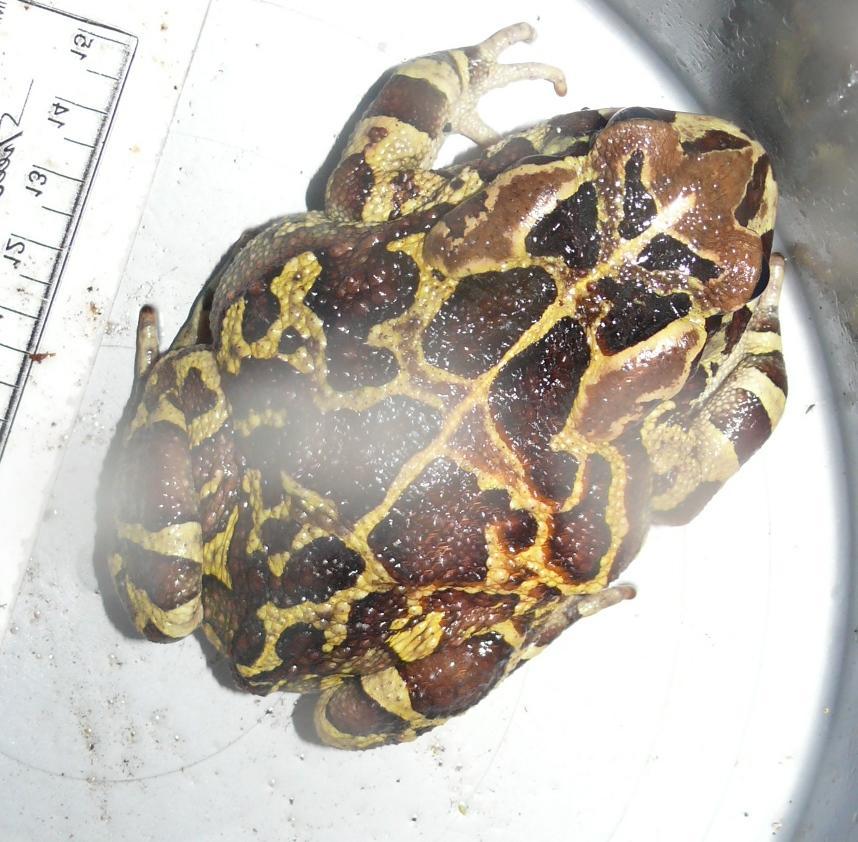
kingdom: Animalia
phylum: Chordata
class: Amphibia
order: Anura
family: Bufonidae
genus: Sclerophrys
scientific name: Sclerophrys pantherina
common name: Panther toad
